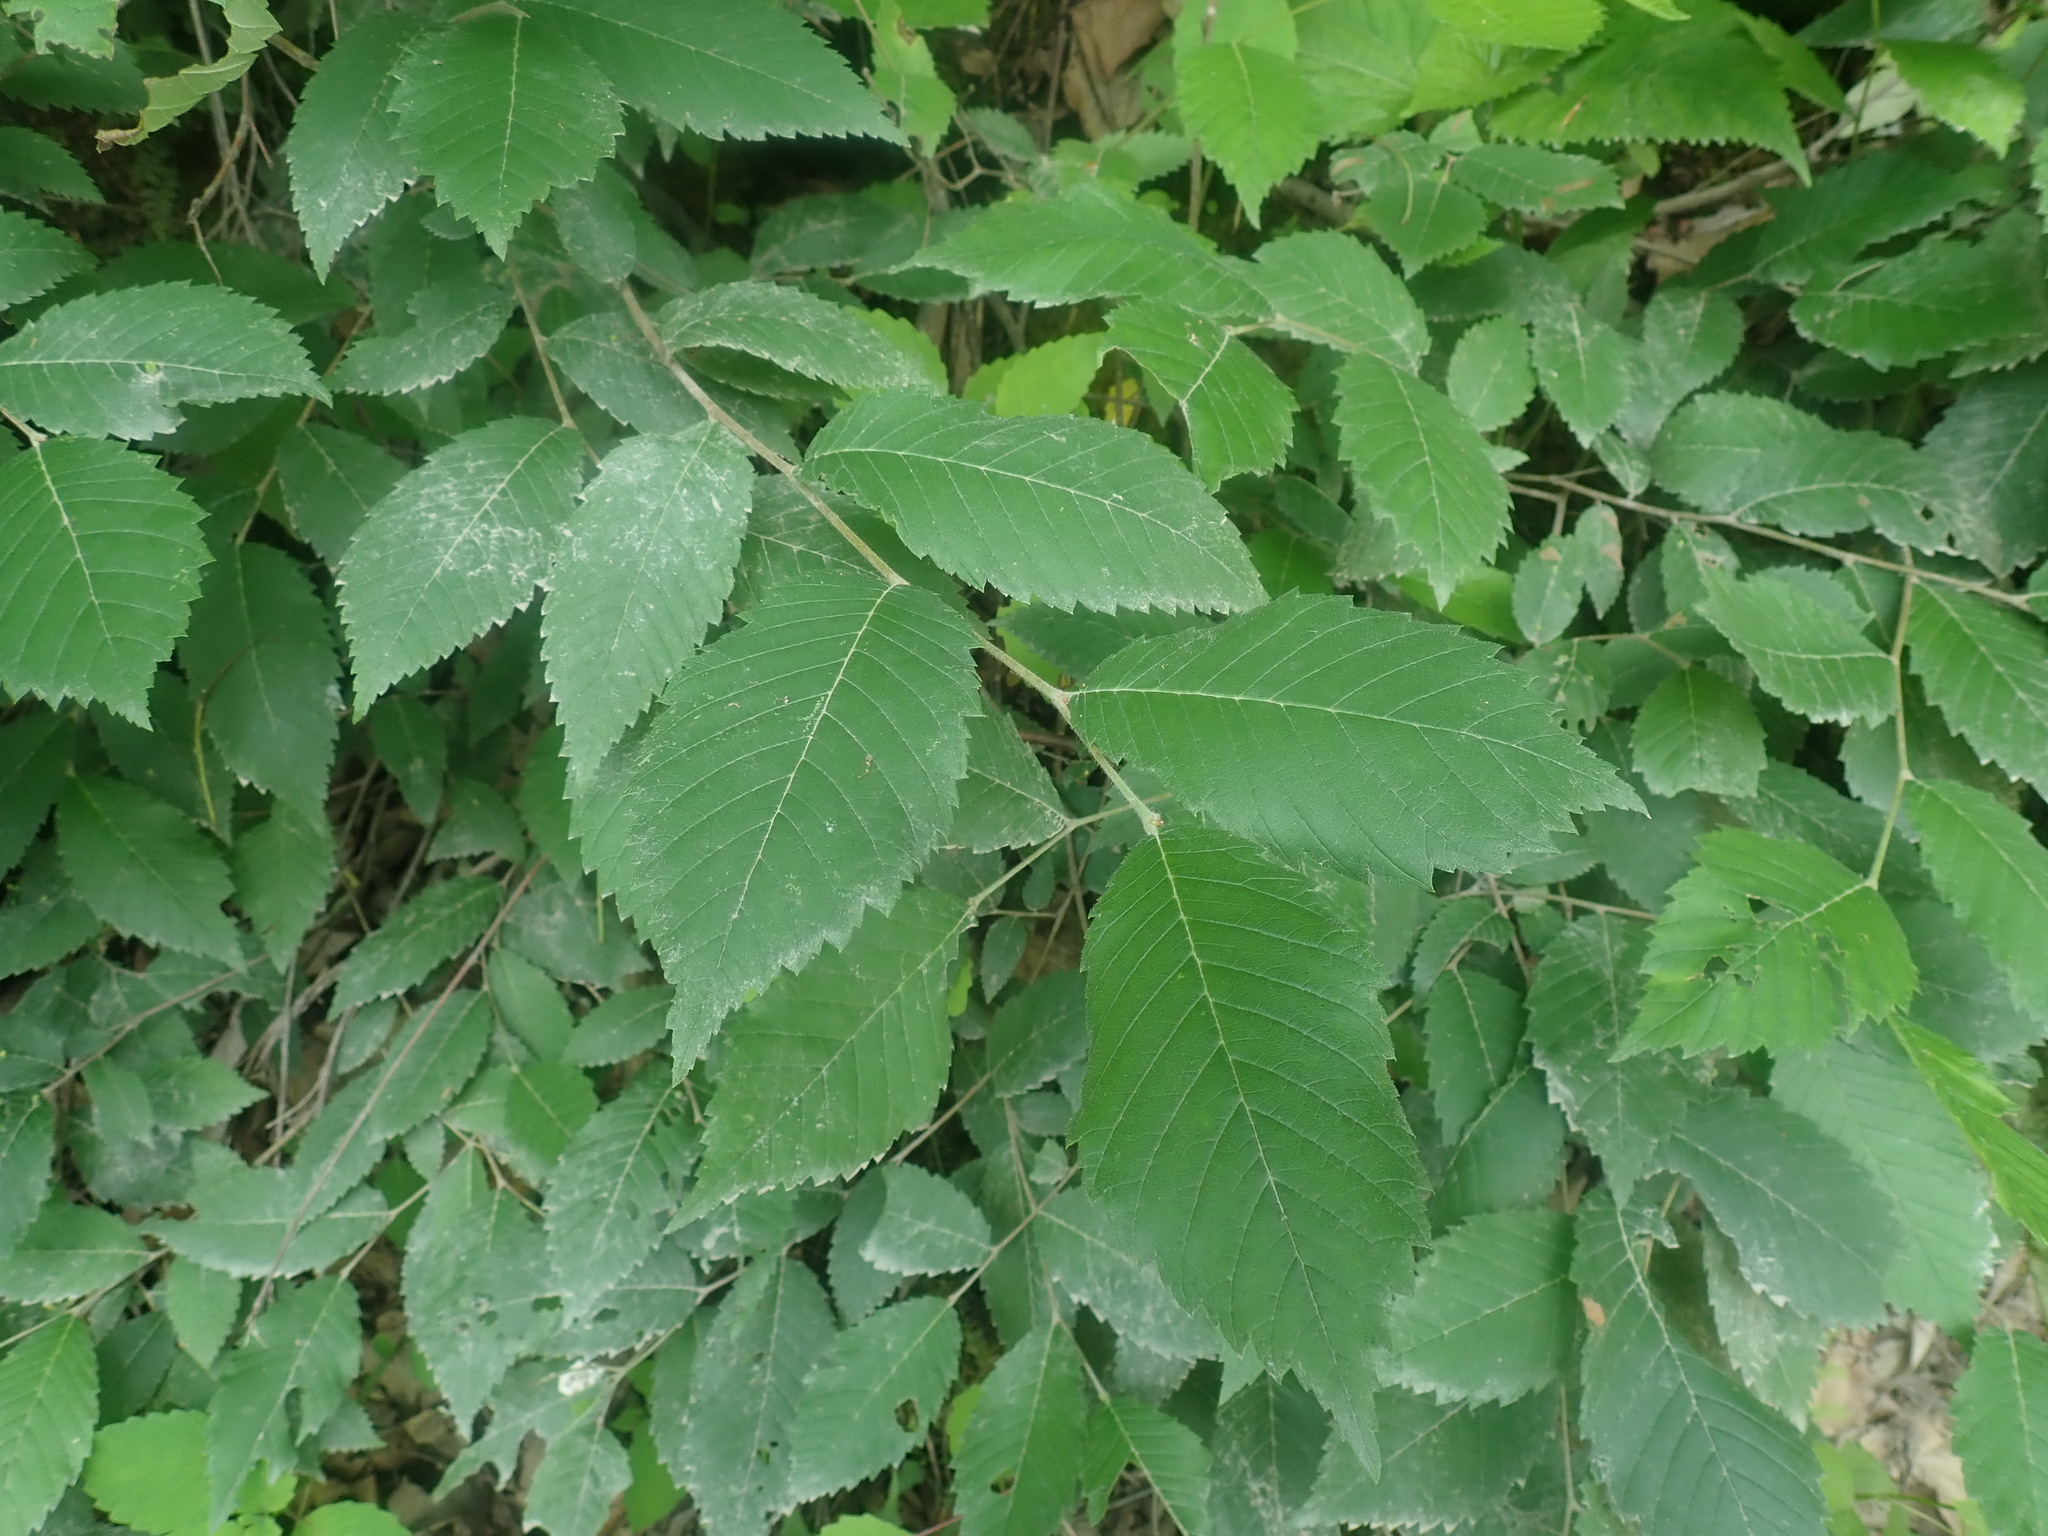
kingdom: Plantae
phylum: Tracheophyta
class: Magnoliopsida
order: Rosales
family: Ulmaceae
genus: Ulmus
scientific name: Ulmus
